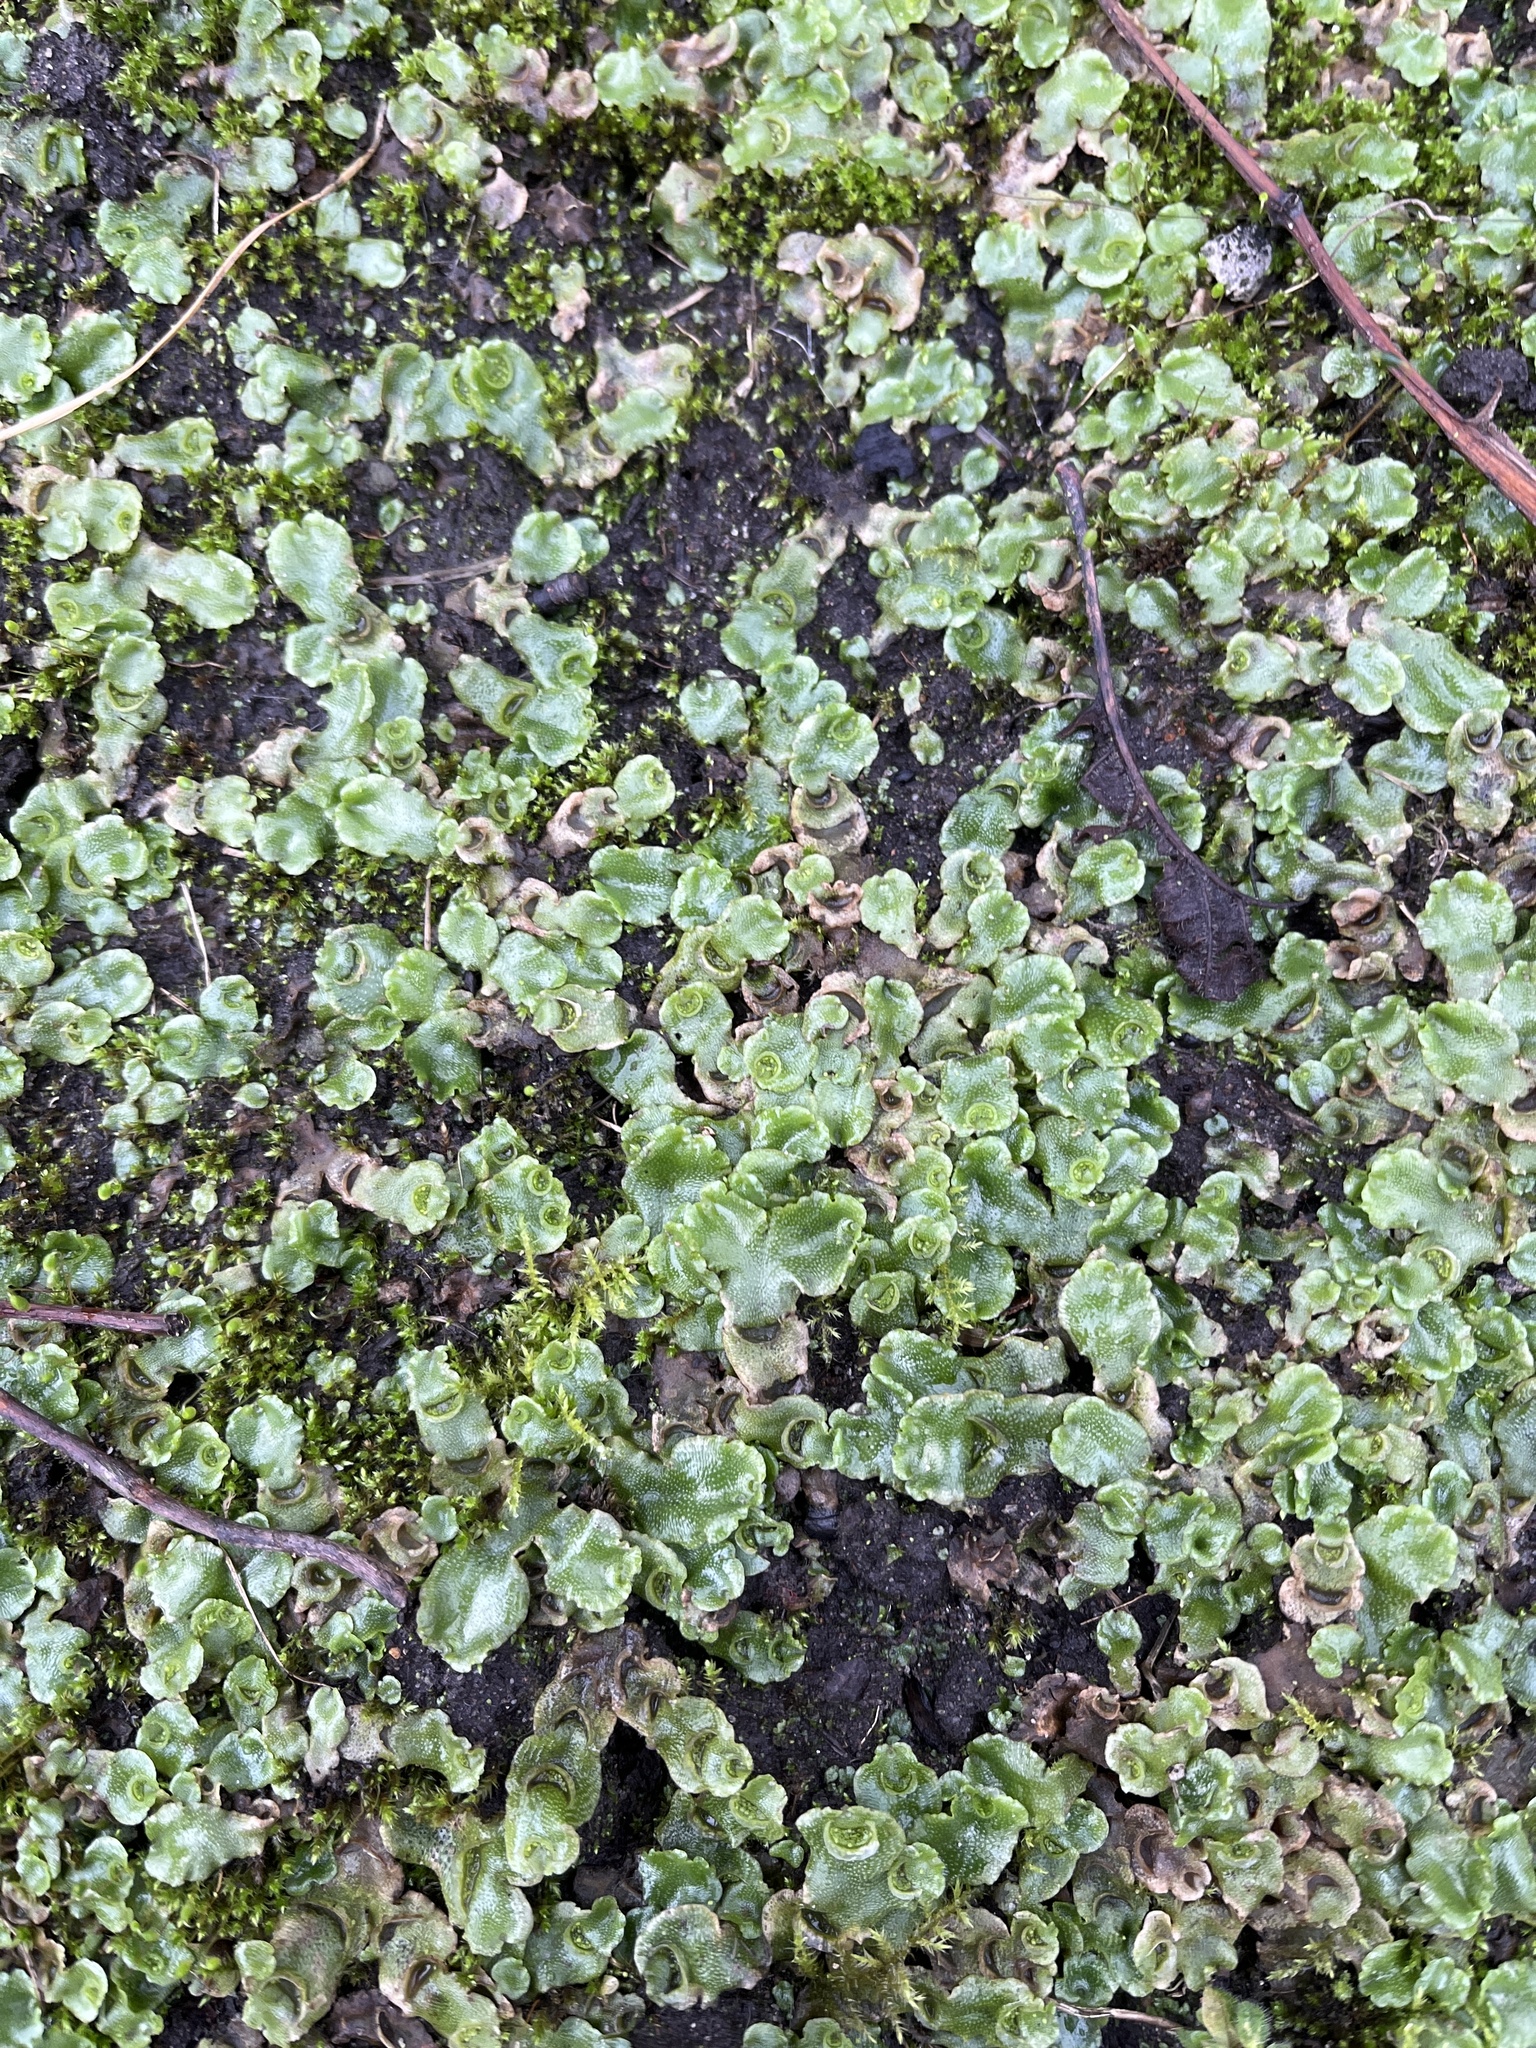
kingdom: Plantae
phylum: Marchantiophyta
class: Marchantiopsida
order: Lunulariales
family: Lunulariaceae
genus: Lunularia
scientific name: Lunularia cruciata
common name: Crescent-cup liverwort
